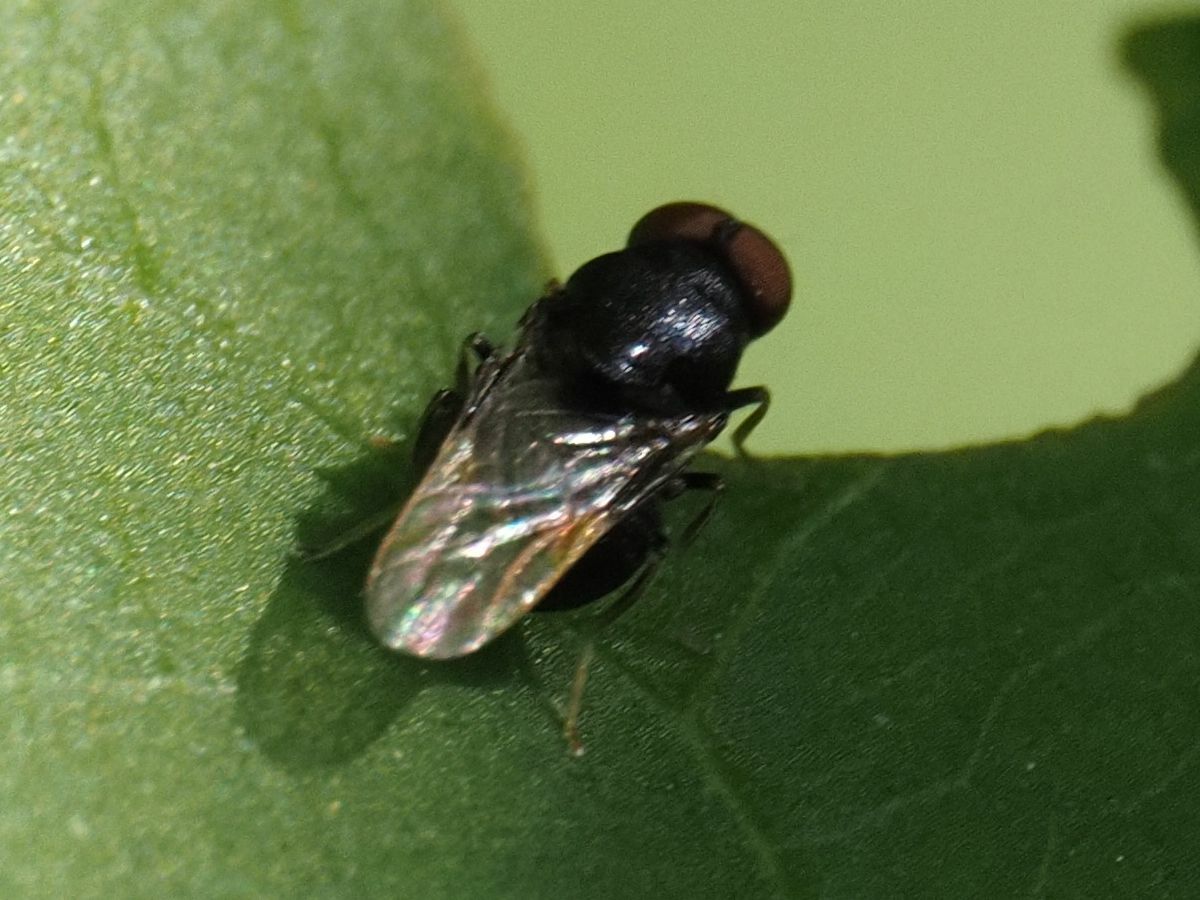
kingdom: Animalia
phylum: Arthropoda
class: Insecta
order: Diptera
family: Stratiomyidae
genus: Eupachygaster
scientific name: Eupachygaster tarsalis
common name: Scarce black
